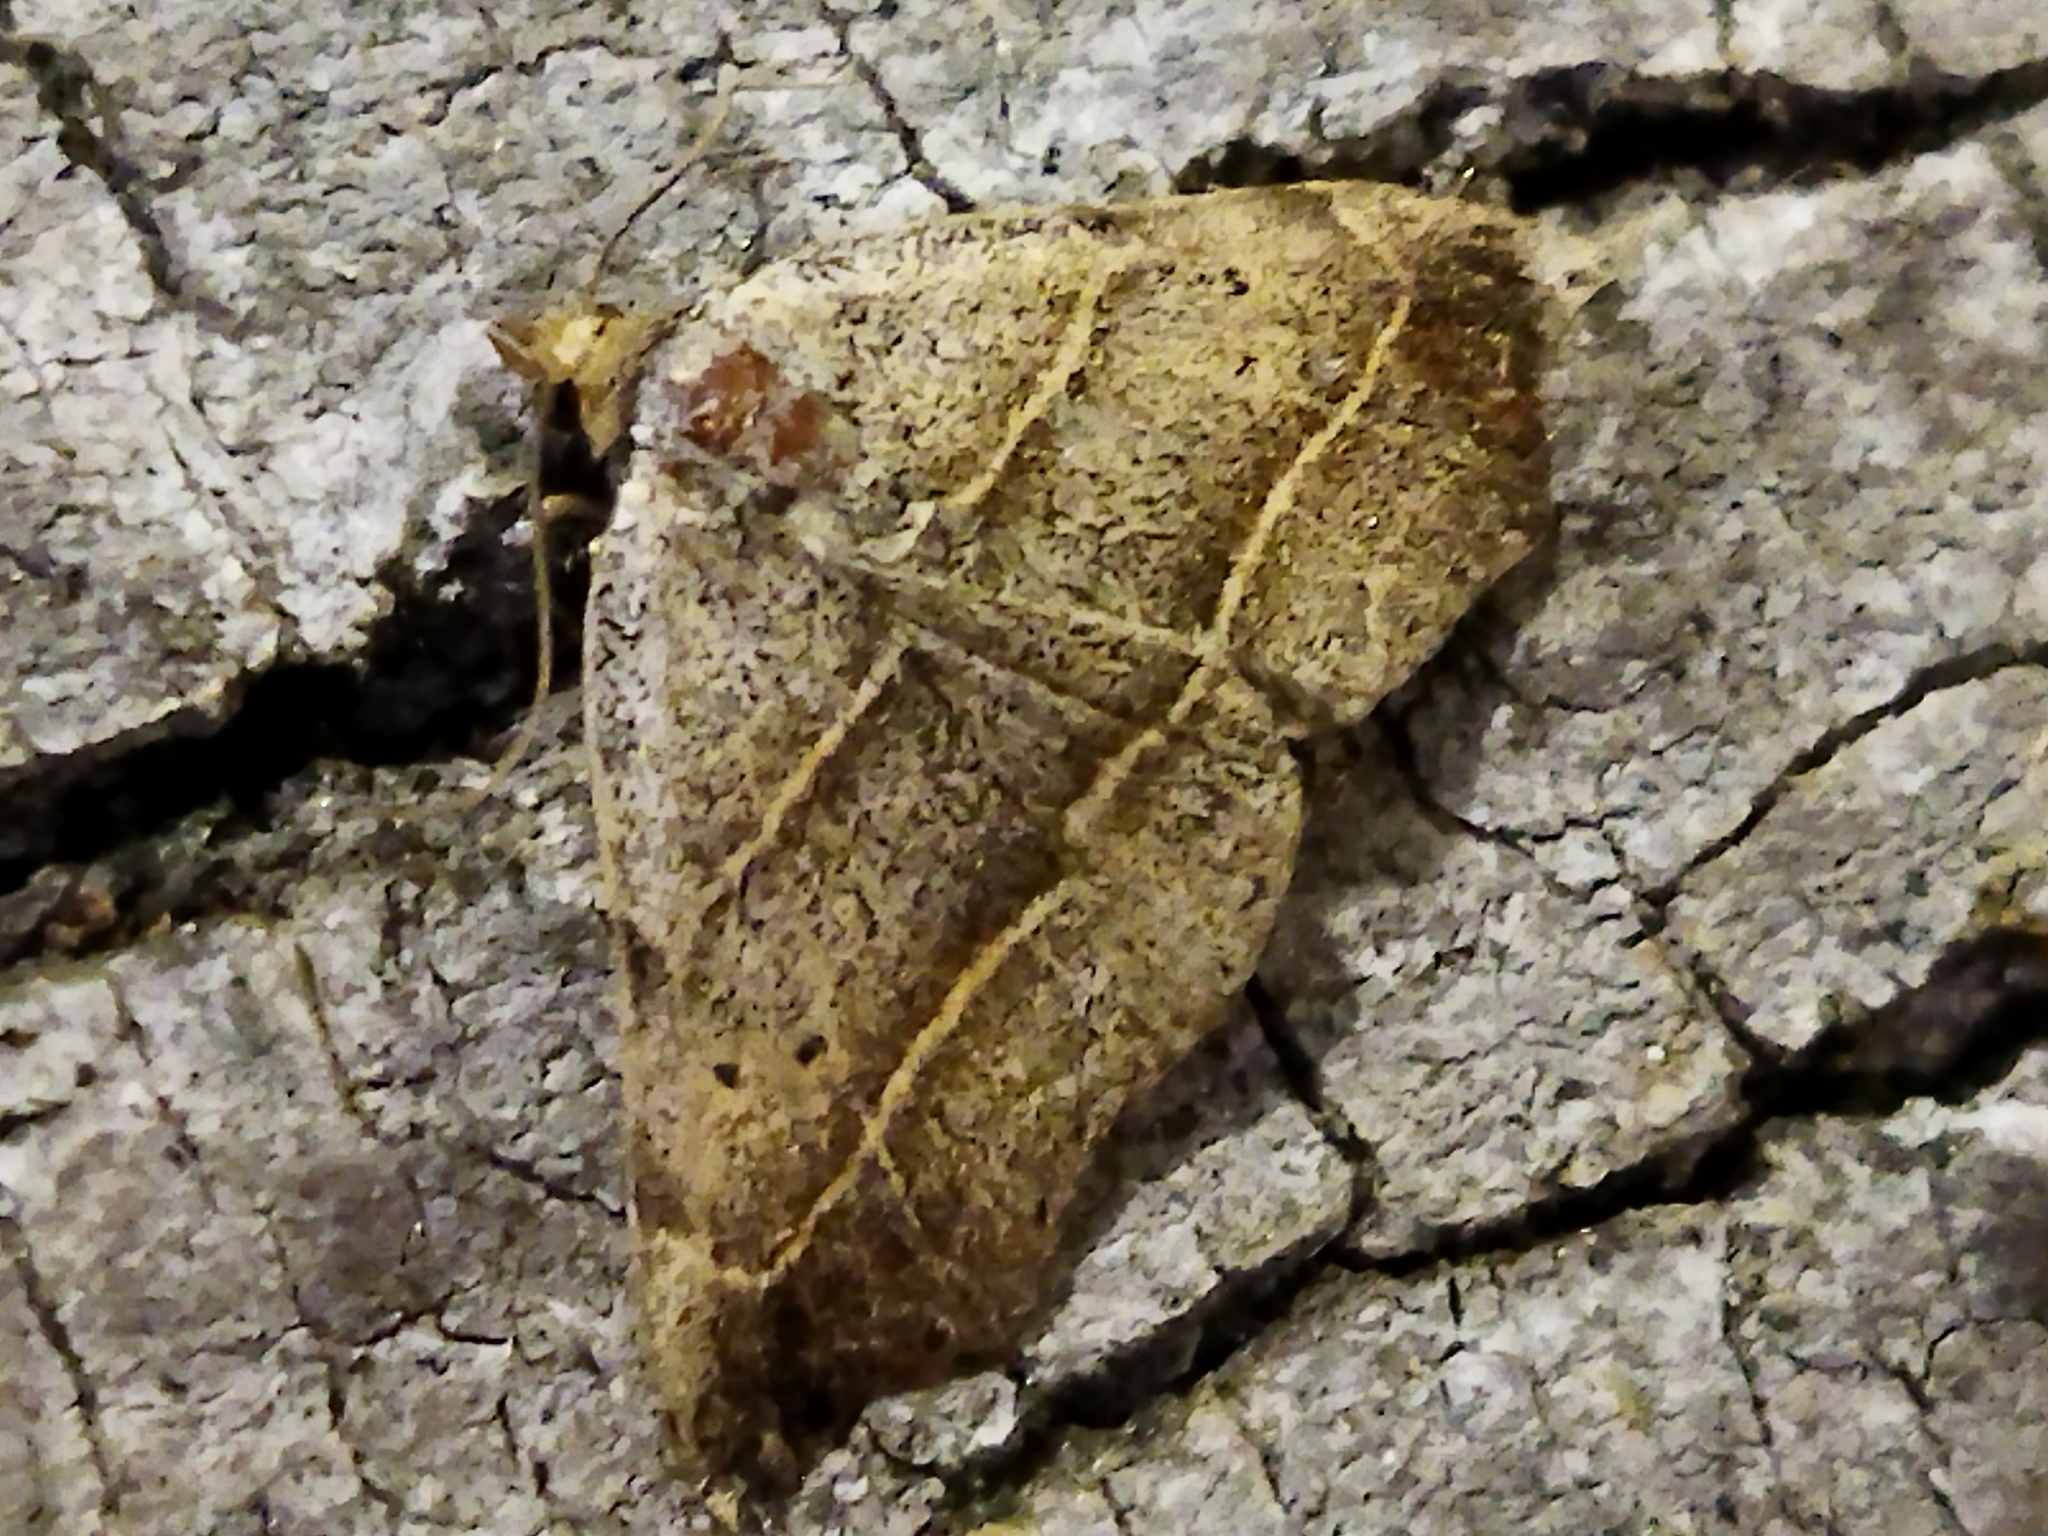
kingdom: Animalia
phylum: Arthropoda
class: Insecta
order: Lepidoptera
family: Erebidae
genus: Laspeyria
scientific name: Laspeyria flexula
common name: Beautiful hook-tip
